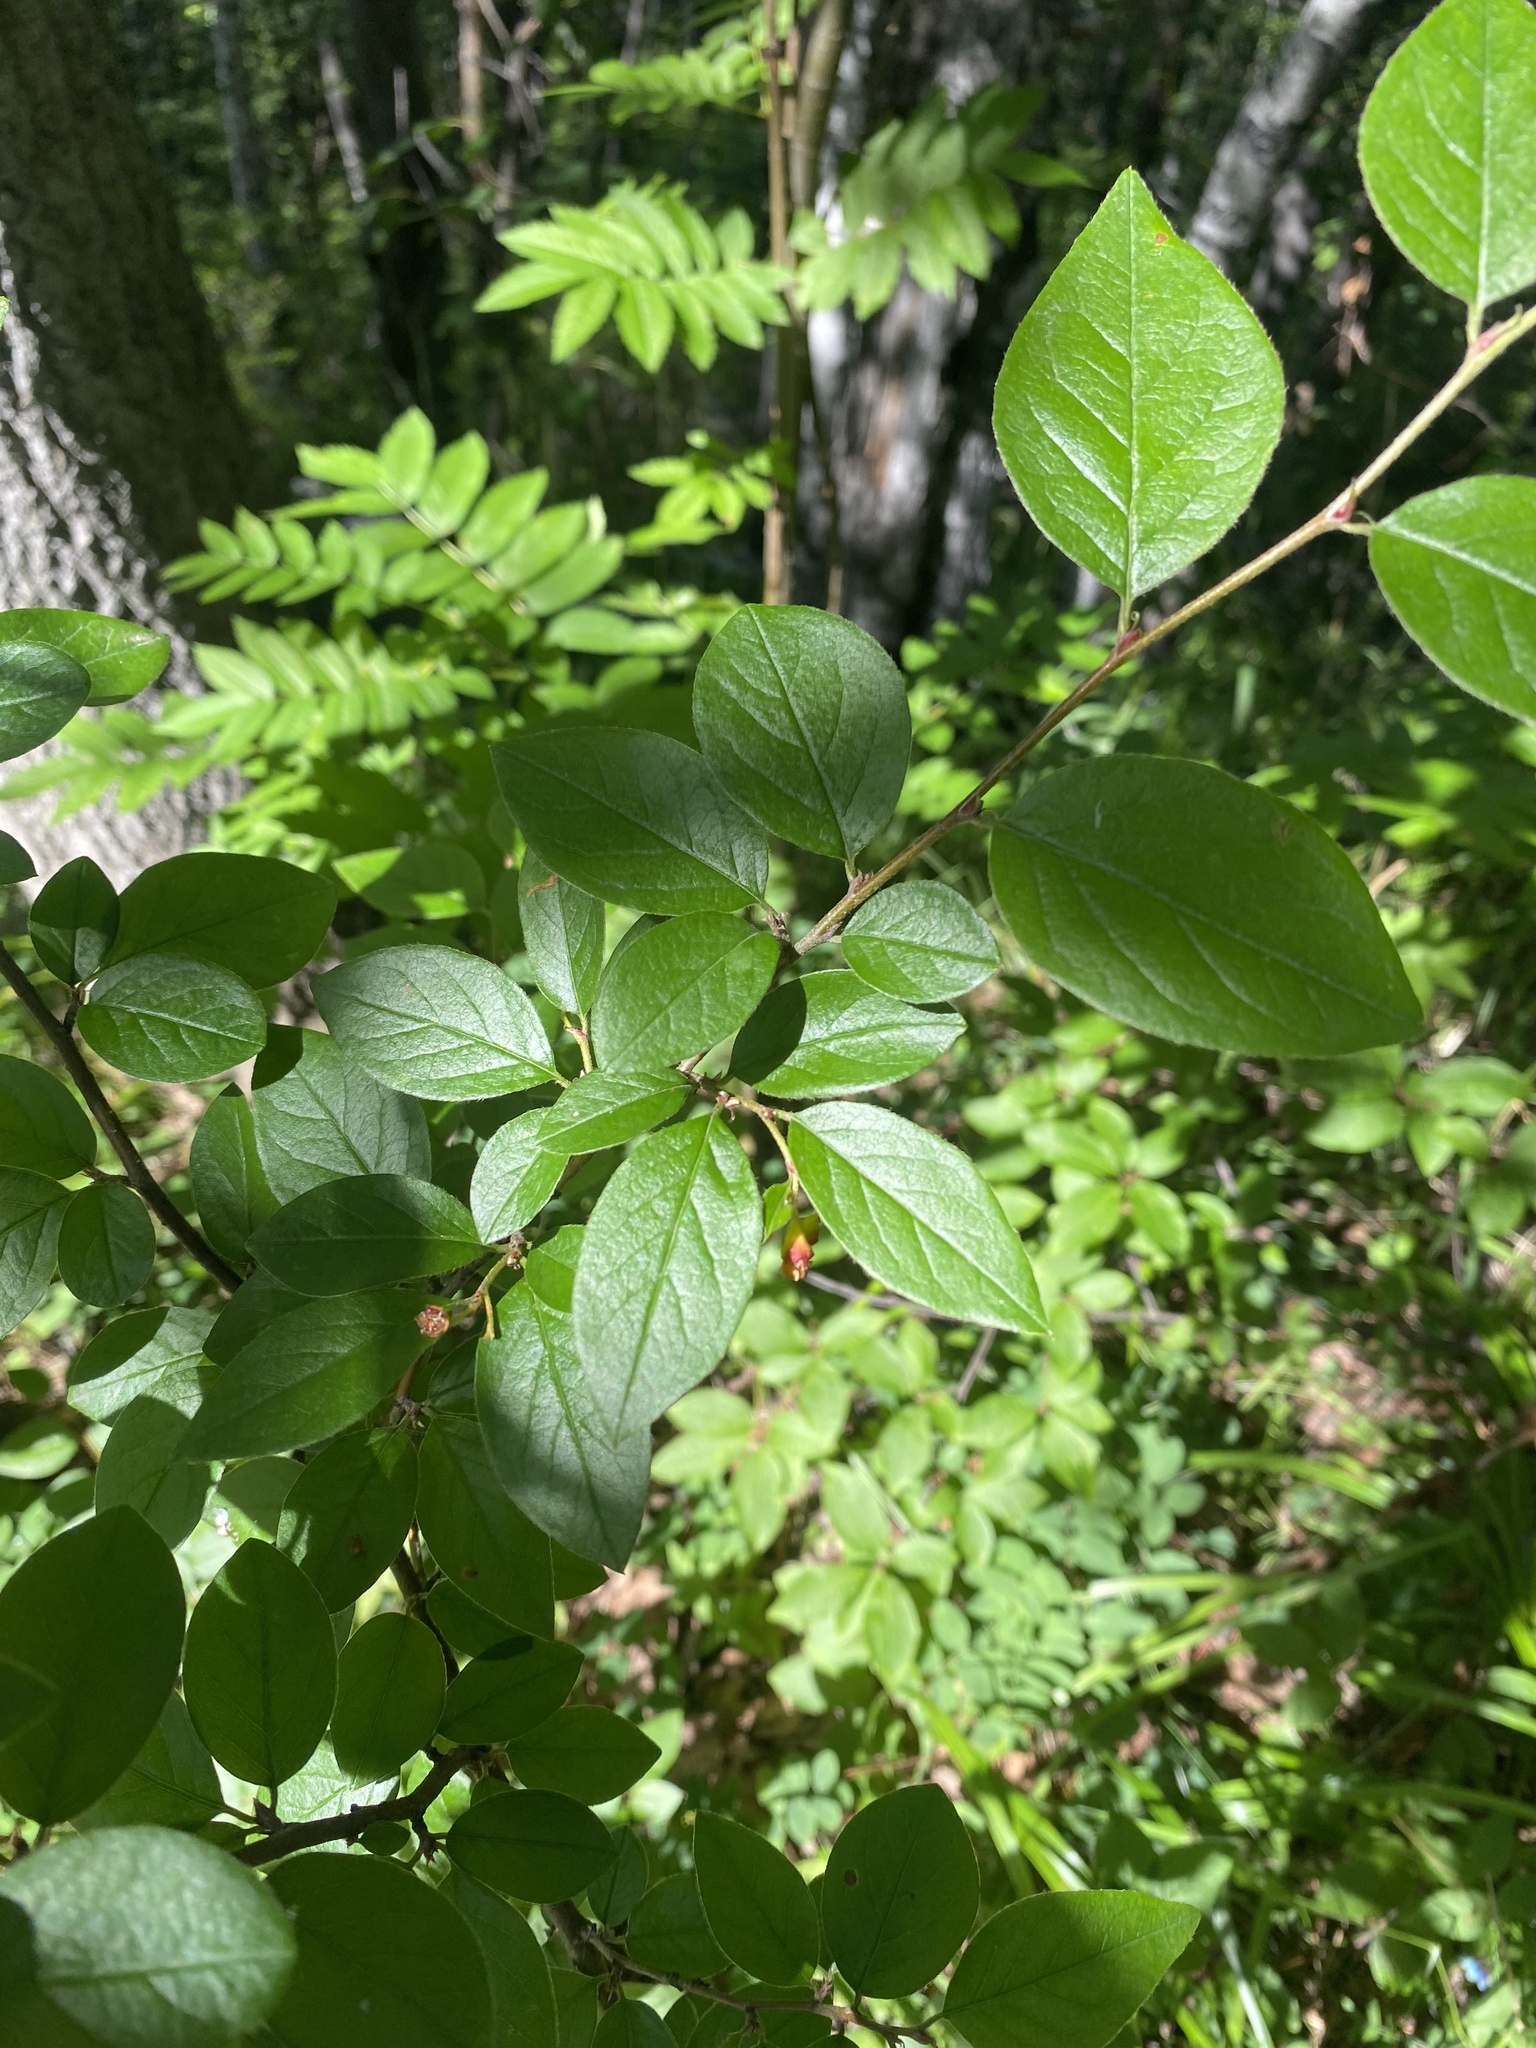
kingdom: Plantae
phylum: Tracheophyta
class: Magnoliopsida
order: Rosales
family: Rosaceae
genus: Cotoneaster
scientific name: Cotoneaster acutifolius
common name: Peking cotoneaster
